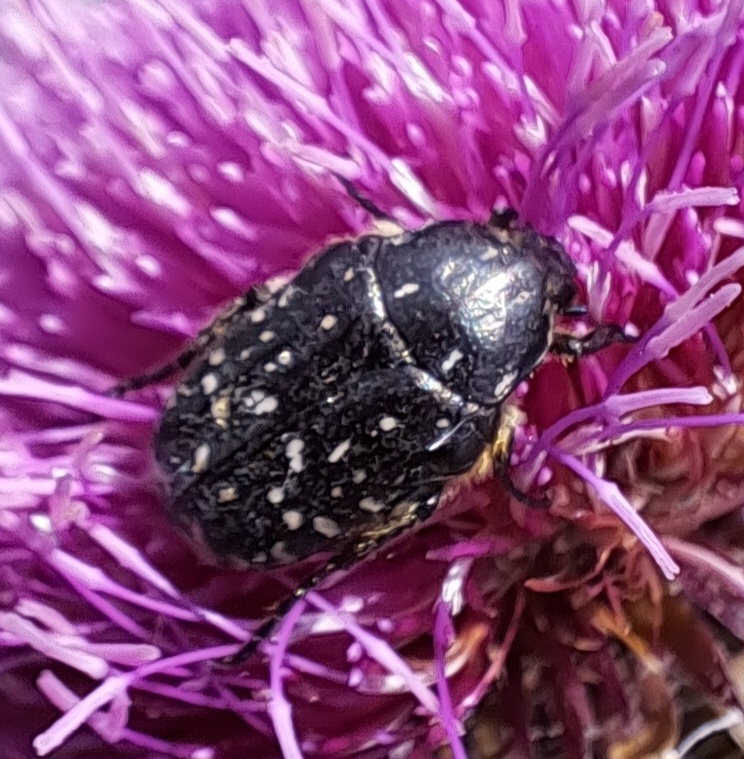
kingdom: Animalia
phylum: Arthropoda
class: Insecta
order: Coleoptera
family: Scarabaeidae
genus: Oxythyrea
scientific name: Oxythyrea funesta
